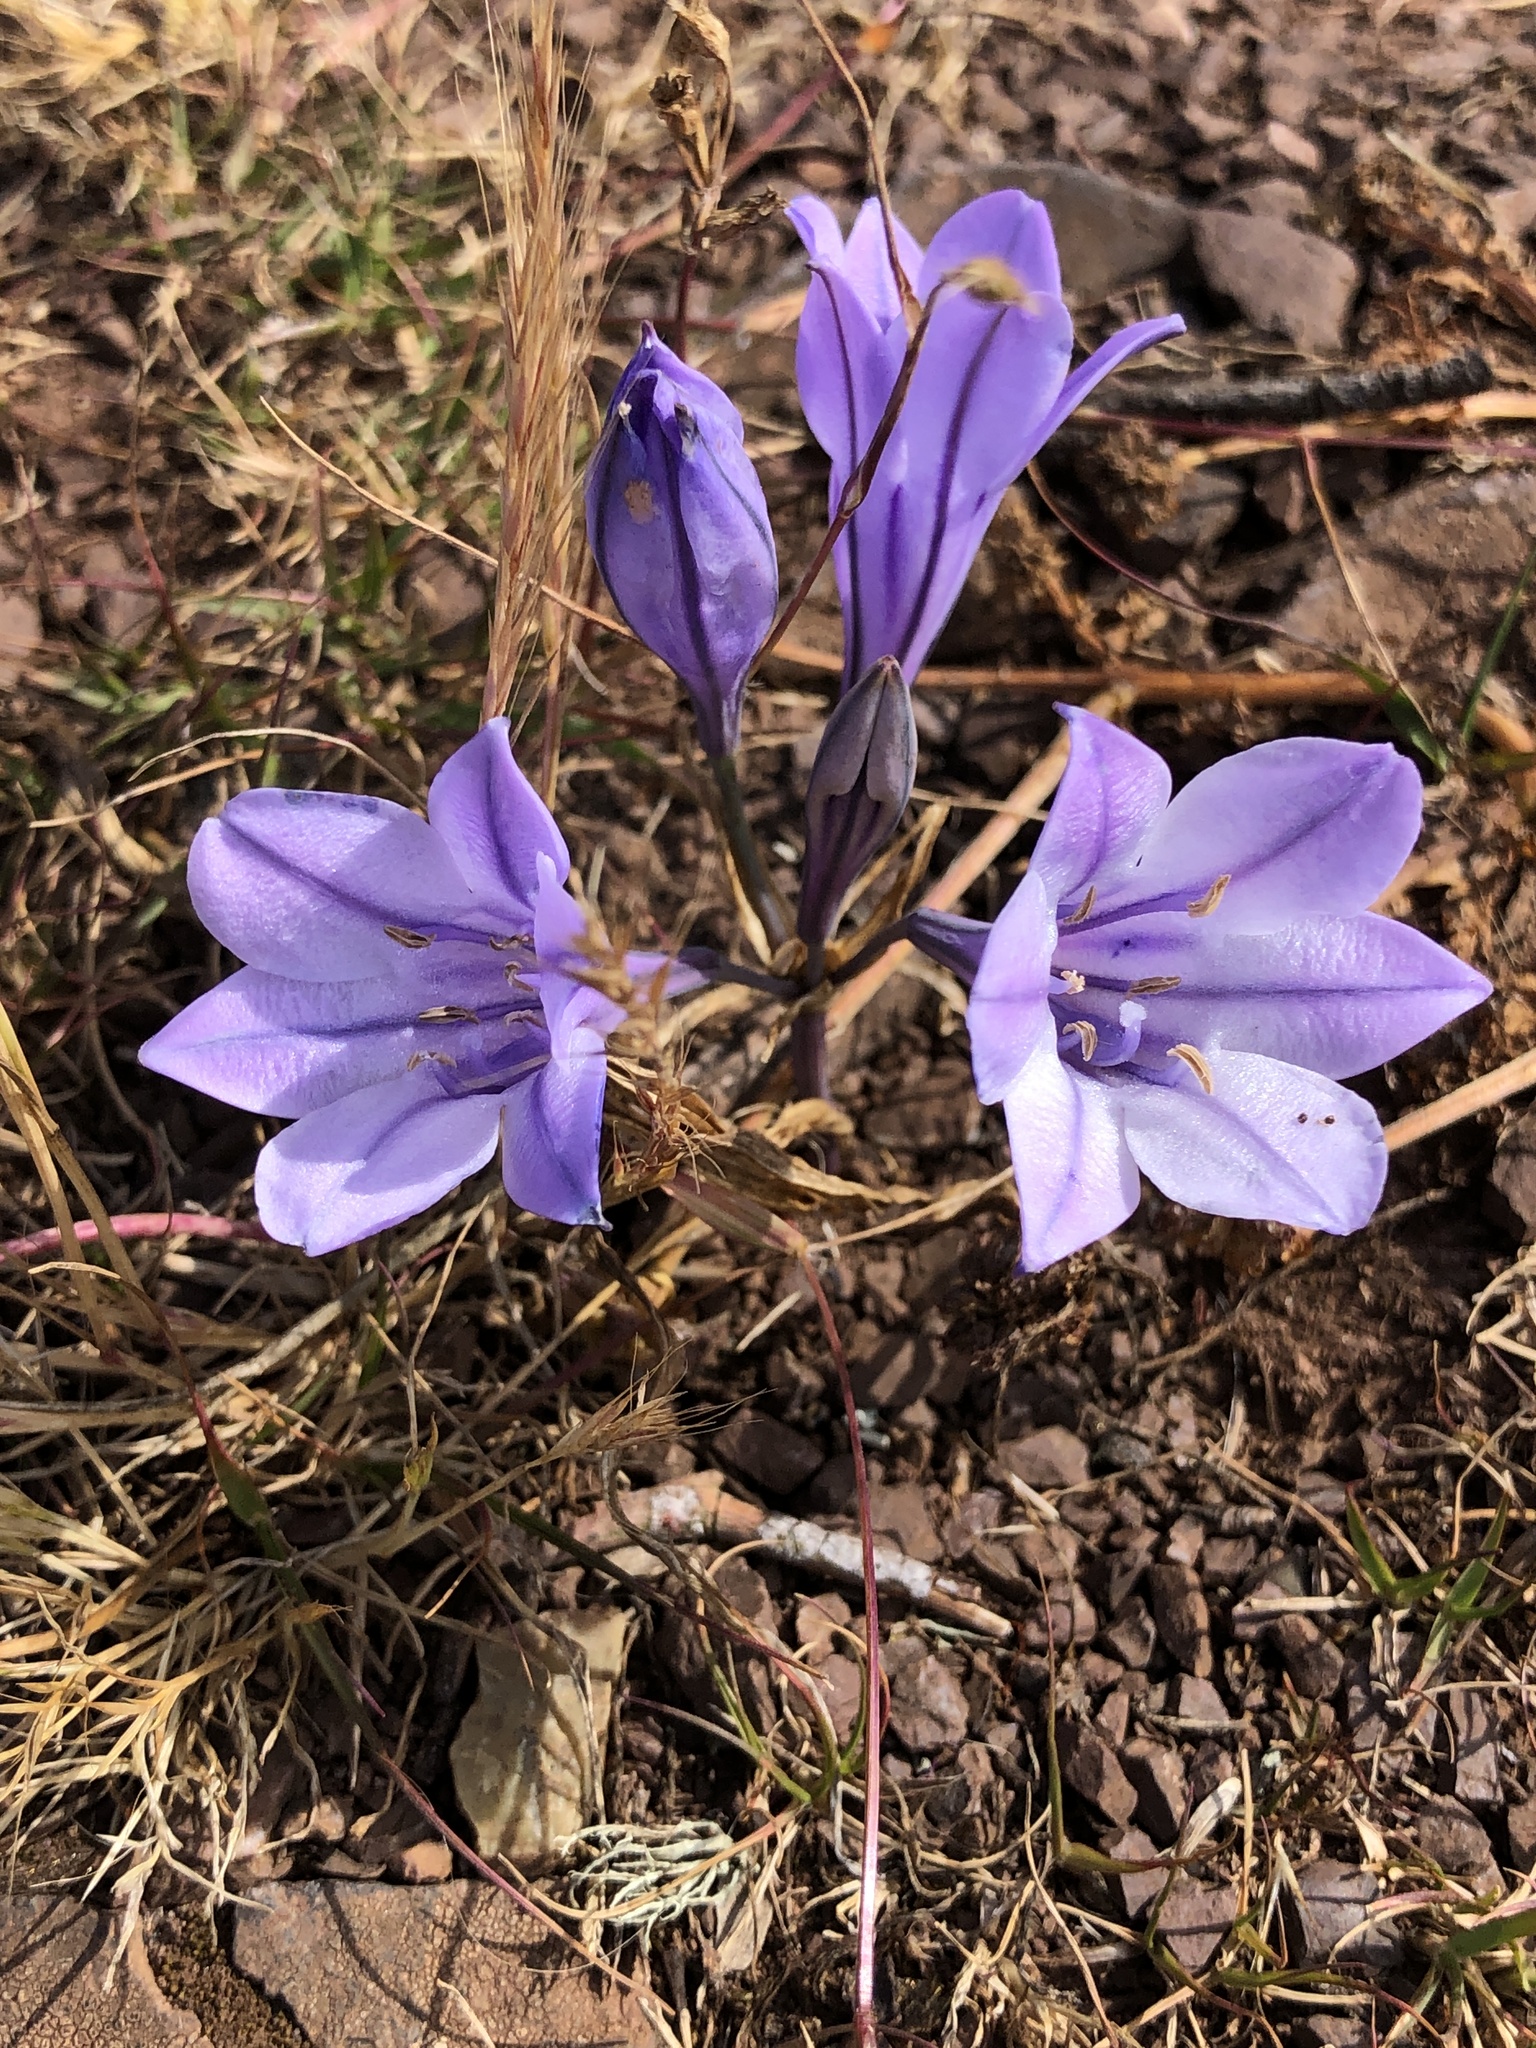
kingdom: Plantae
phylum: Tracheophyta
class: Liliopsida
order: Asparagales
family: Asparagaceae
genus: Triteleia
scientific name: Triteleia laxa
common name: Triplet-lily
